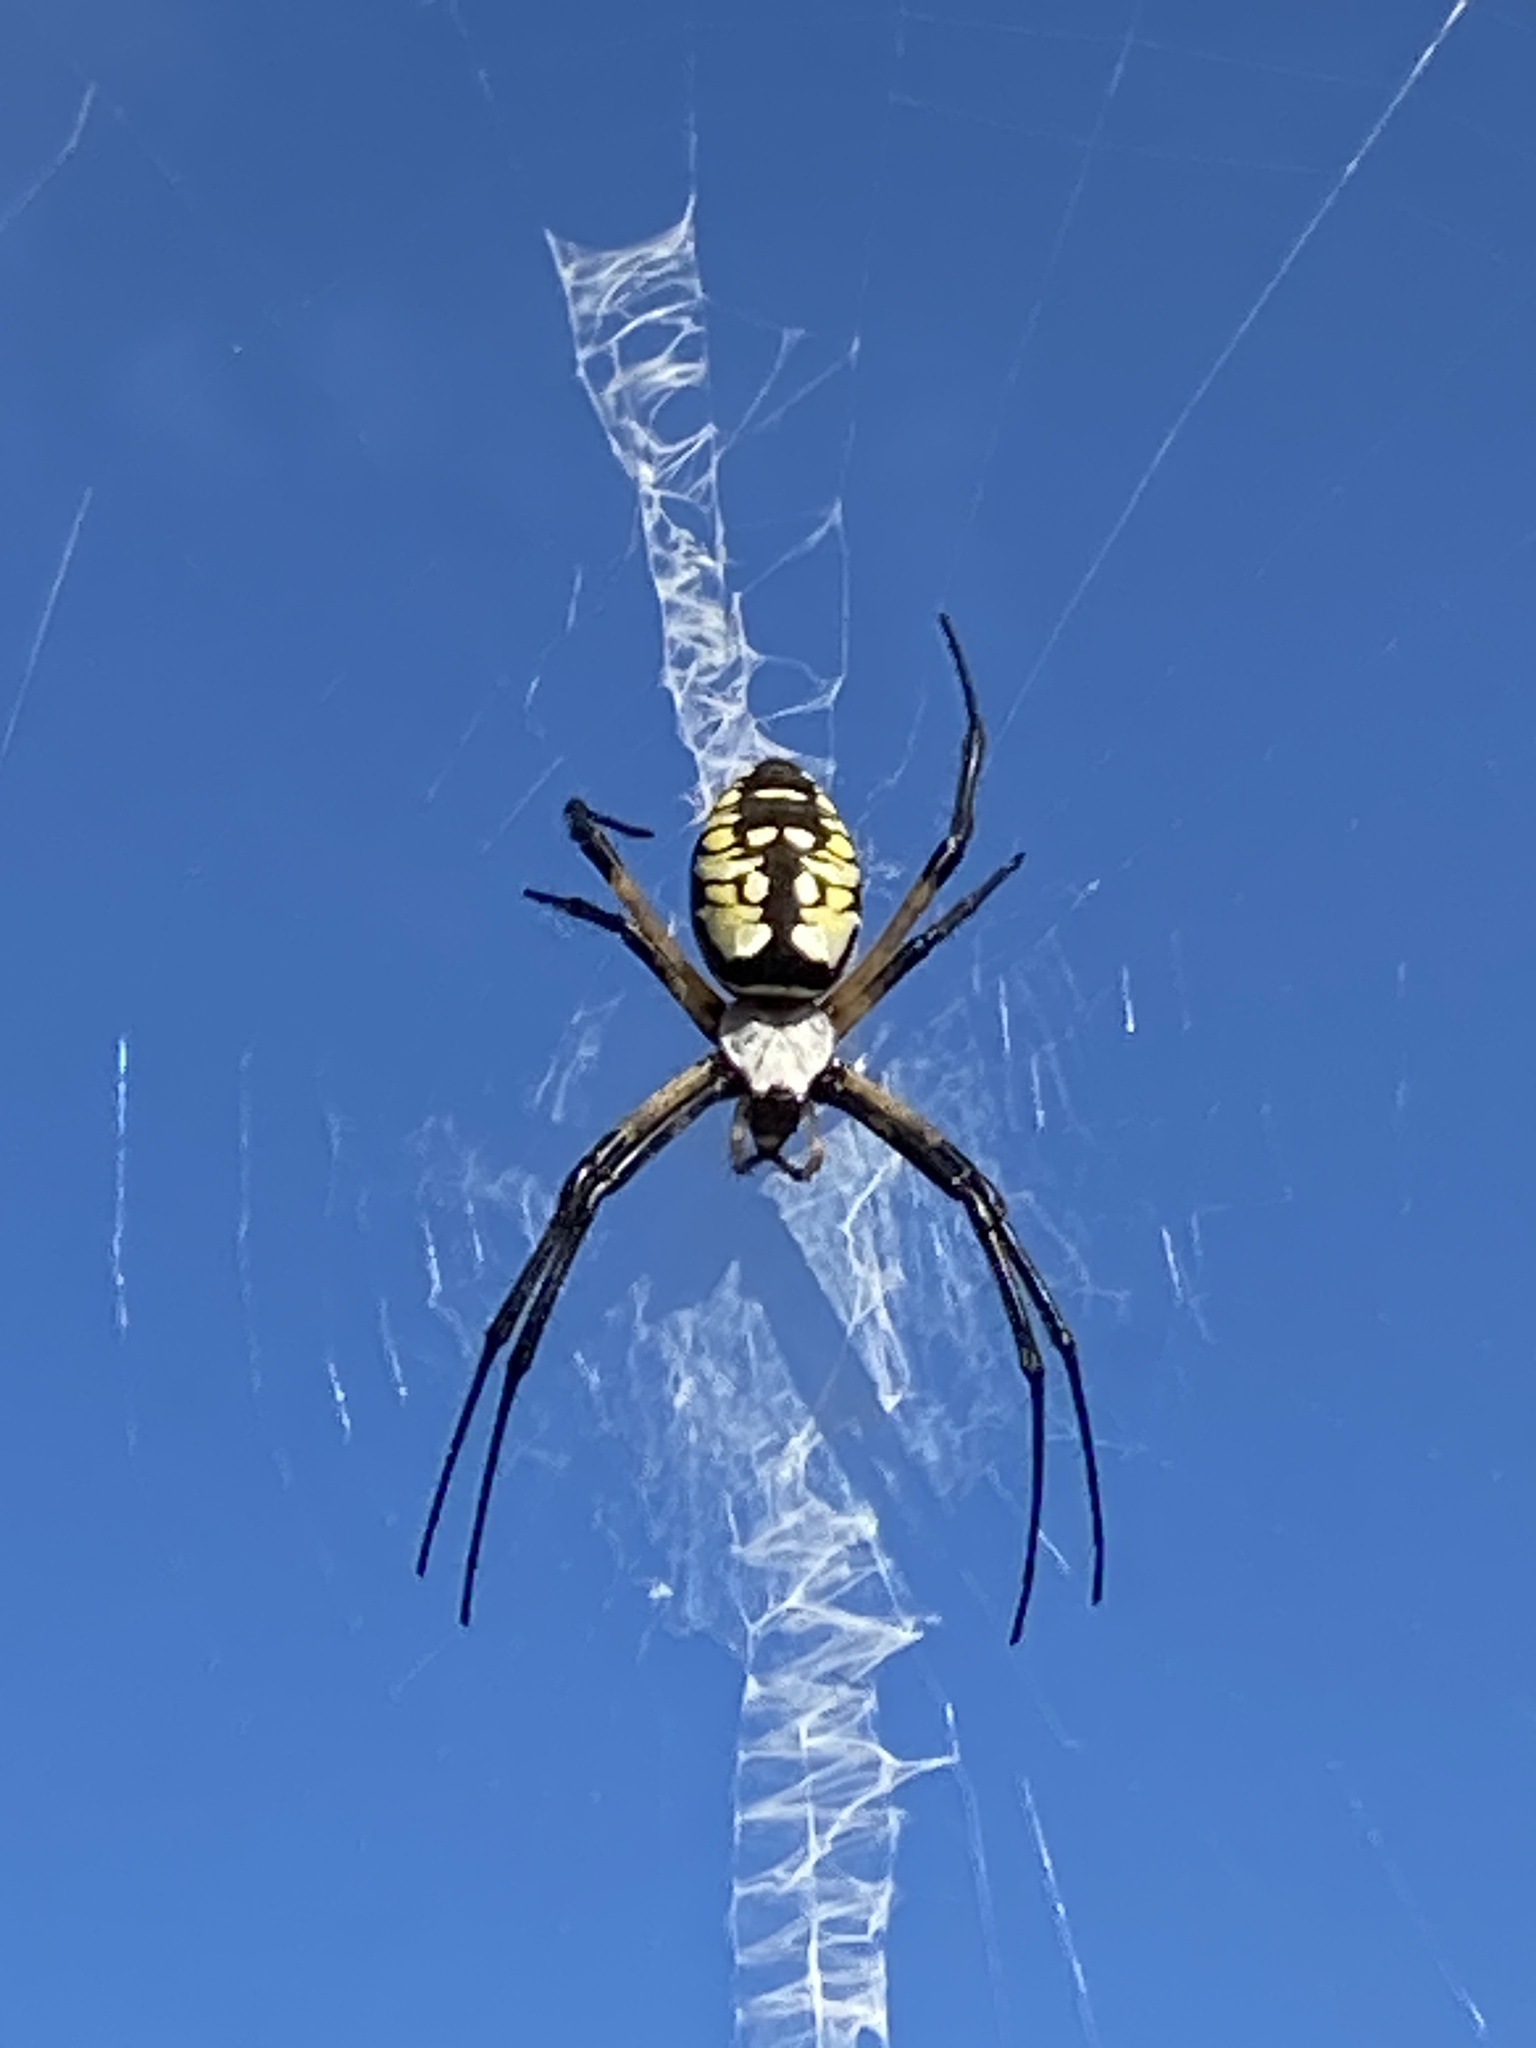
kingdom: Animalia
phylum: Arthropoda
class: Arachnida
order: Araneae
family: Araneidae
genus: Argiope
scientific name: Argiope aurantia
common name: Orb weavers
